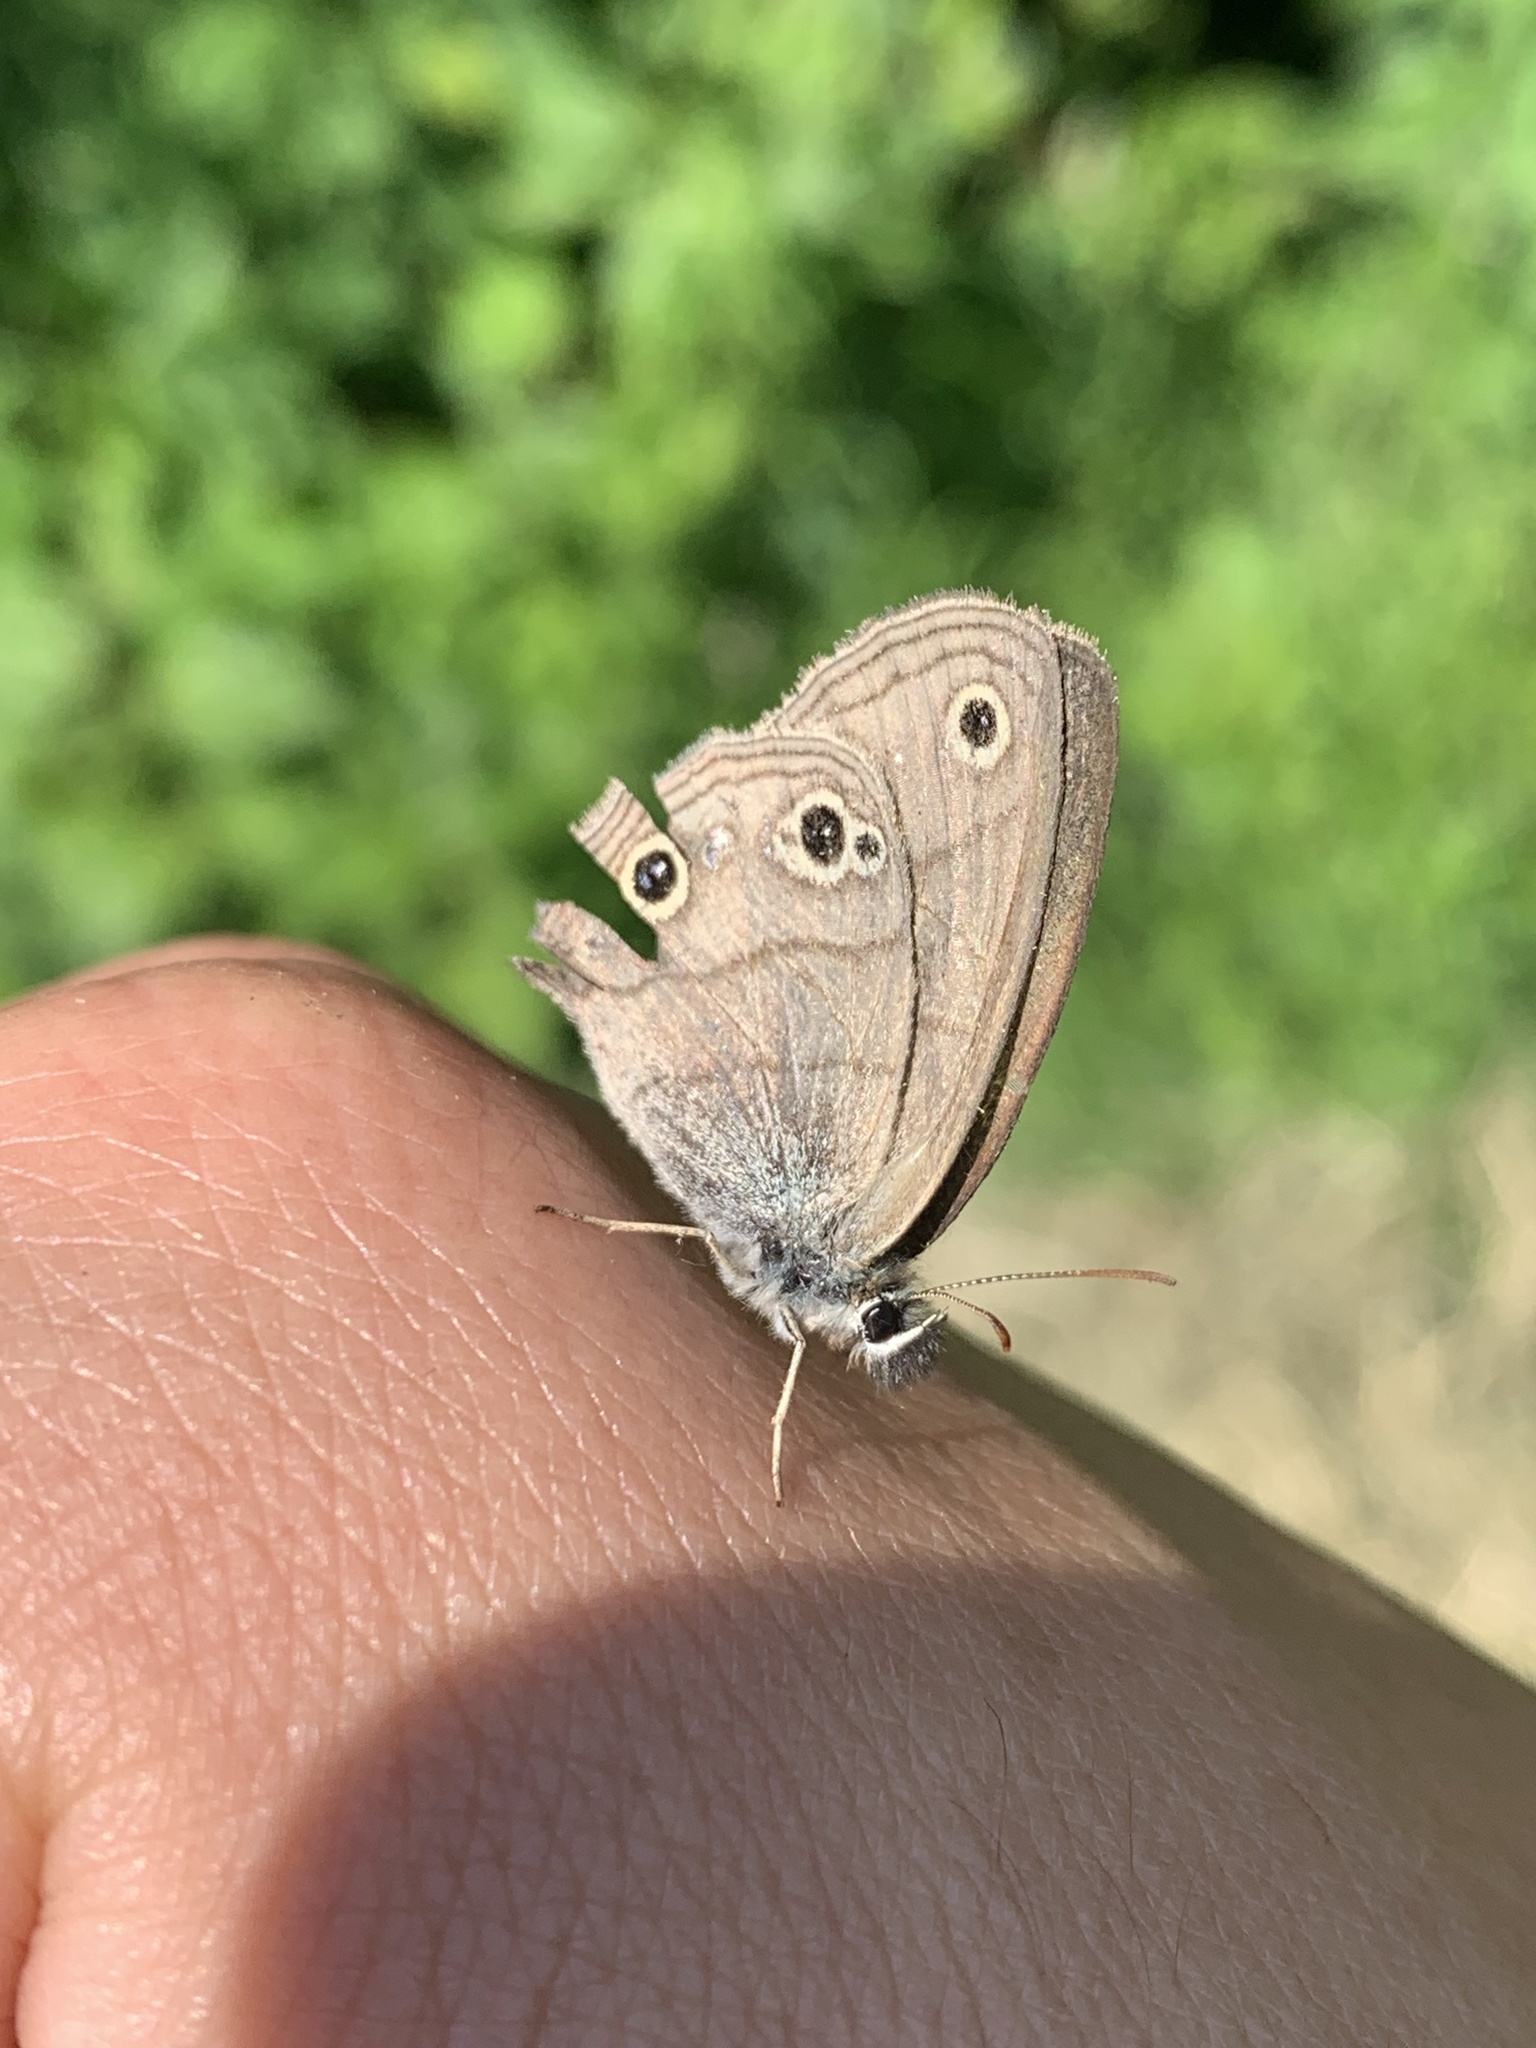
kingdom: Animalia
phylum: Arthropoda
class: Insecta
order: Lepidoptera
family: Nymphalidae
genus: Euptychia
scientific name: Euptychia cymela
